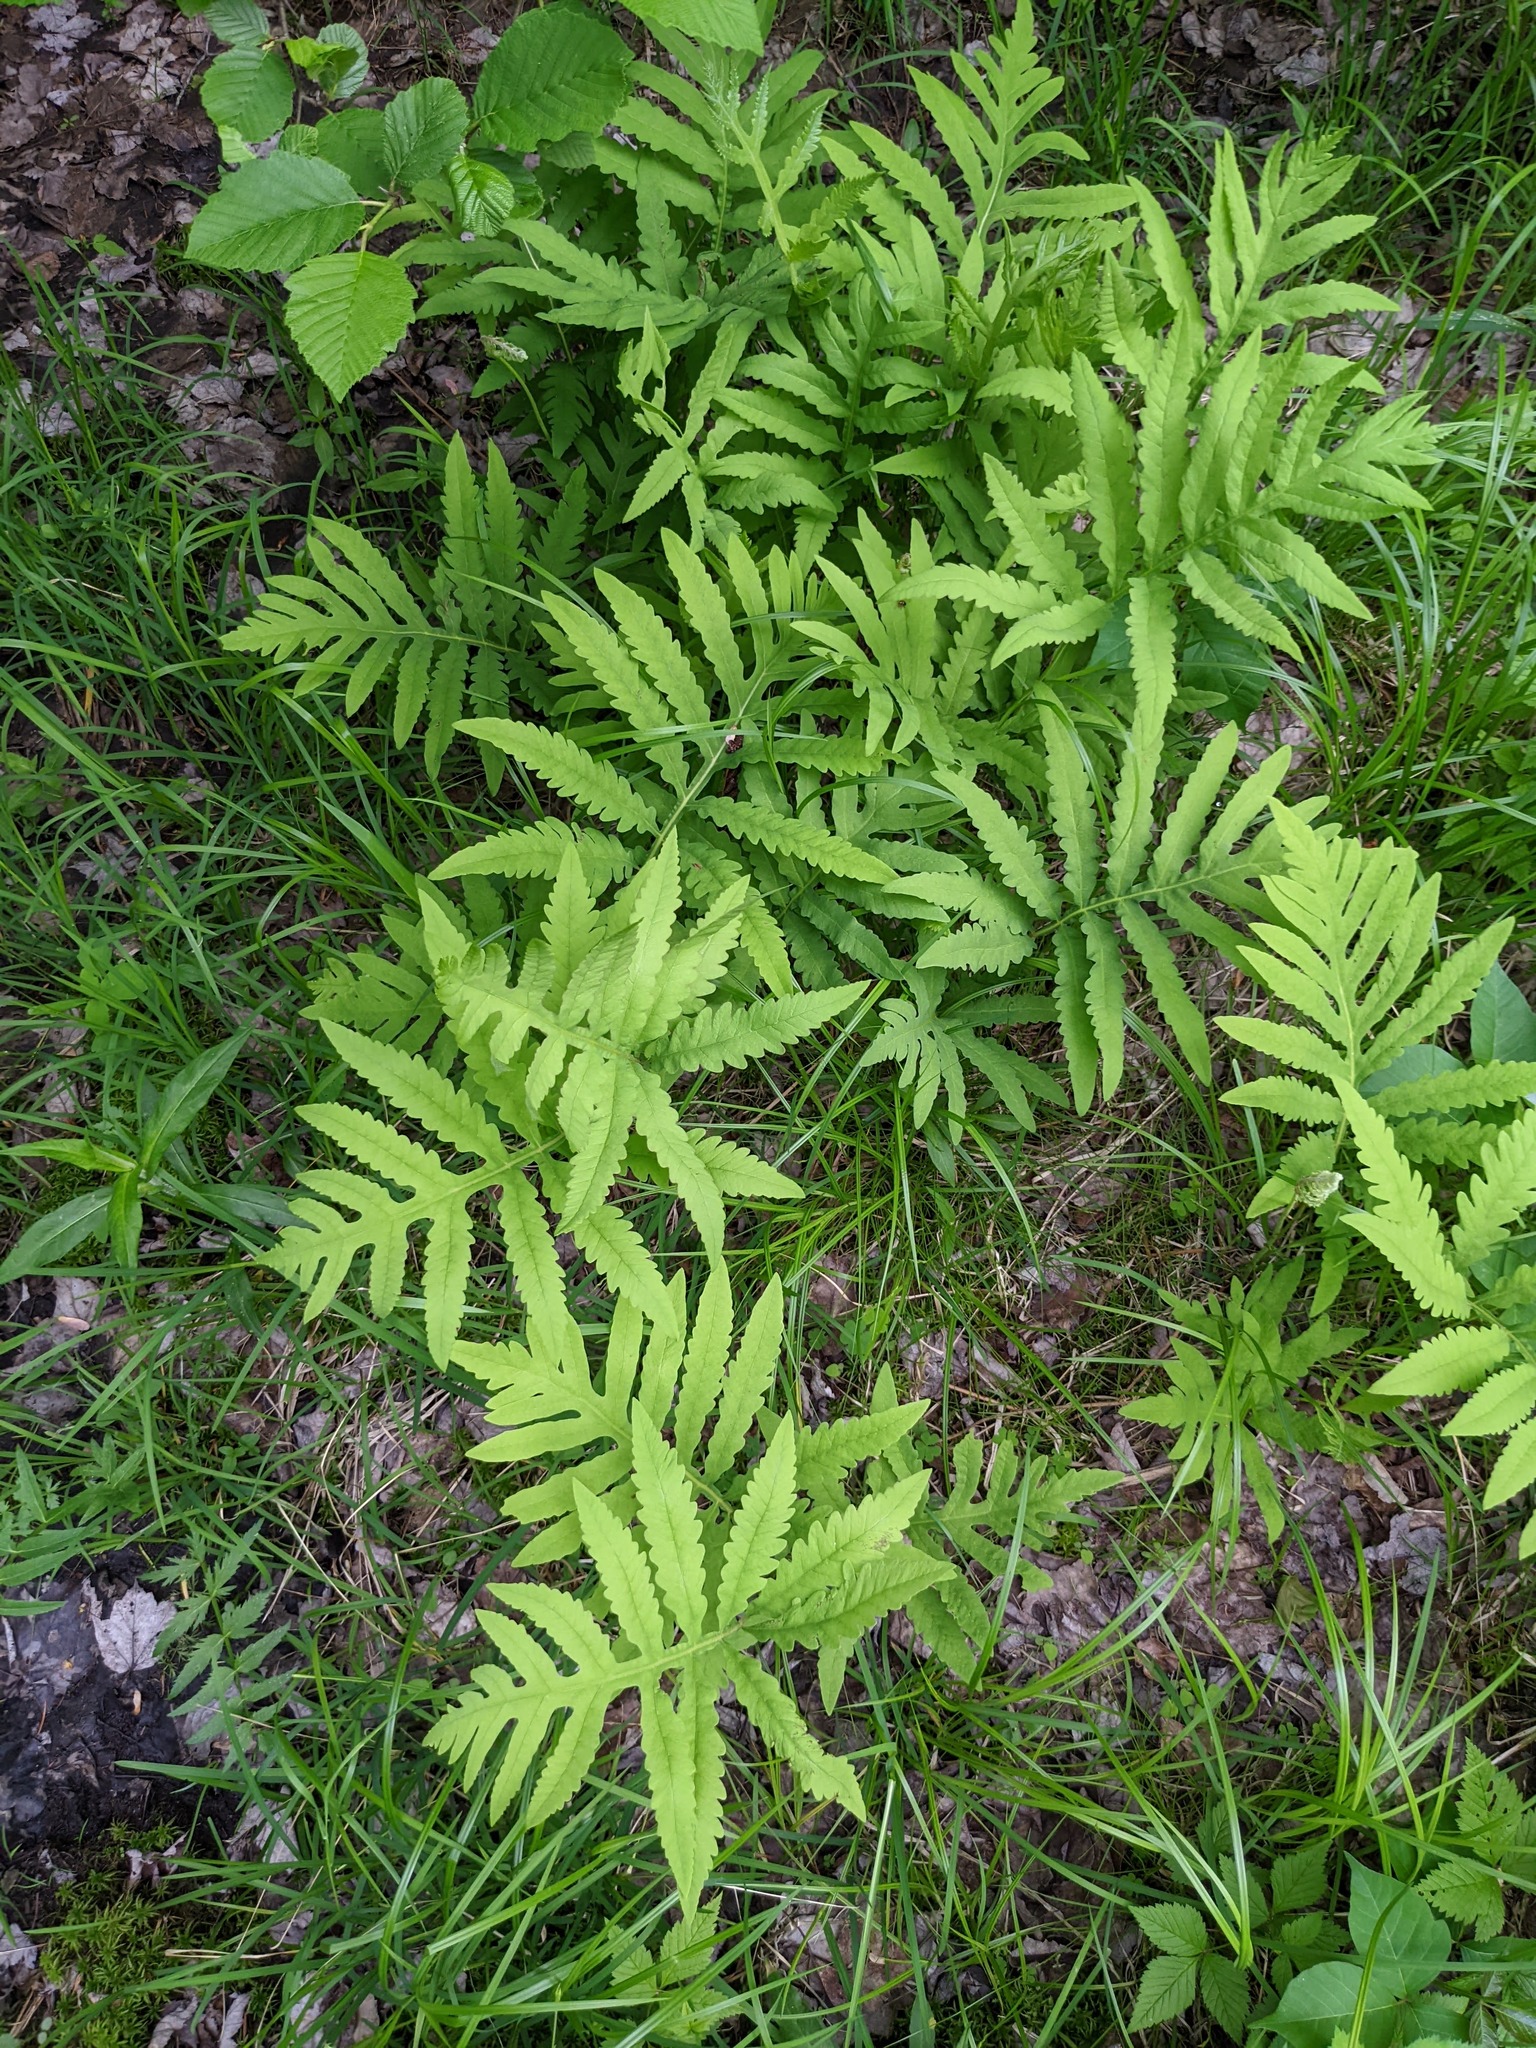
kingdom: Plantae
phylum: Tracheophyta
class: Polypodiopsida
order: Polypodiales
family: Onocleaceae
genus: Onoclea
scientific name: Onoclea sensibilis
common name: Sensitive fern
